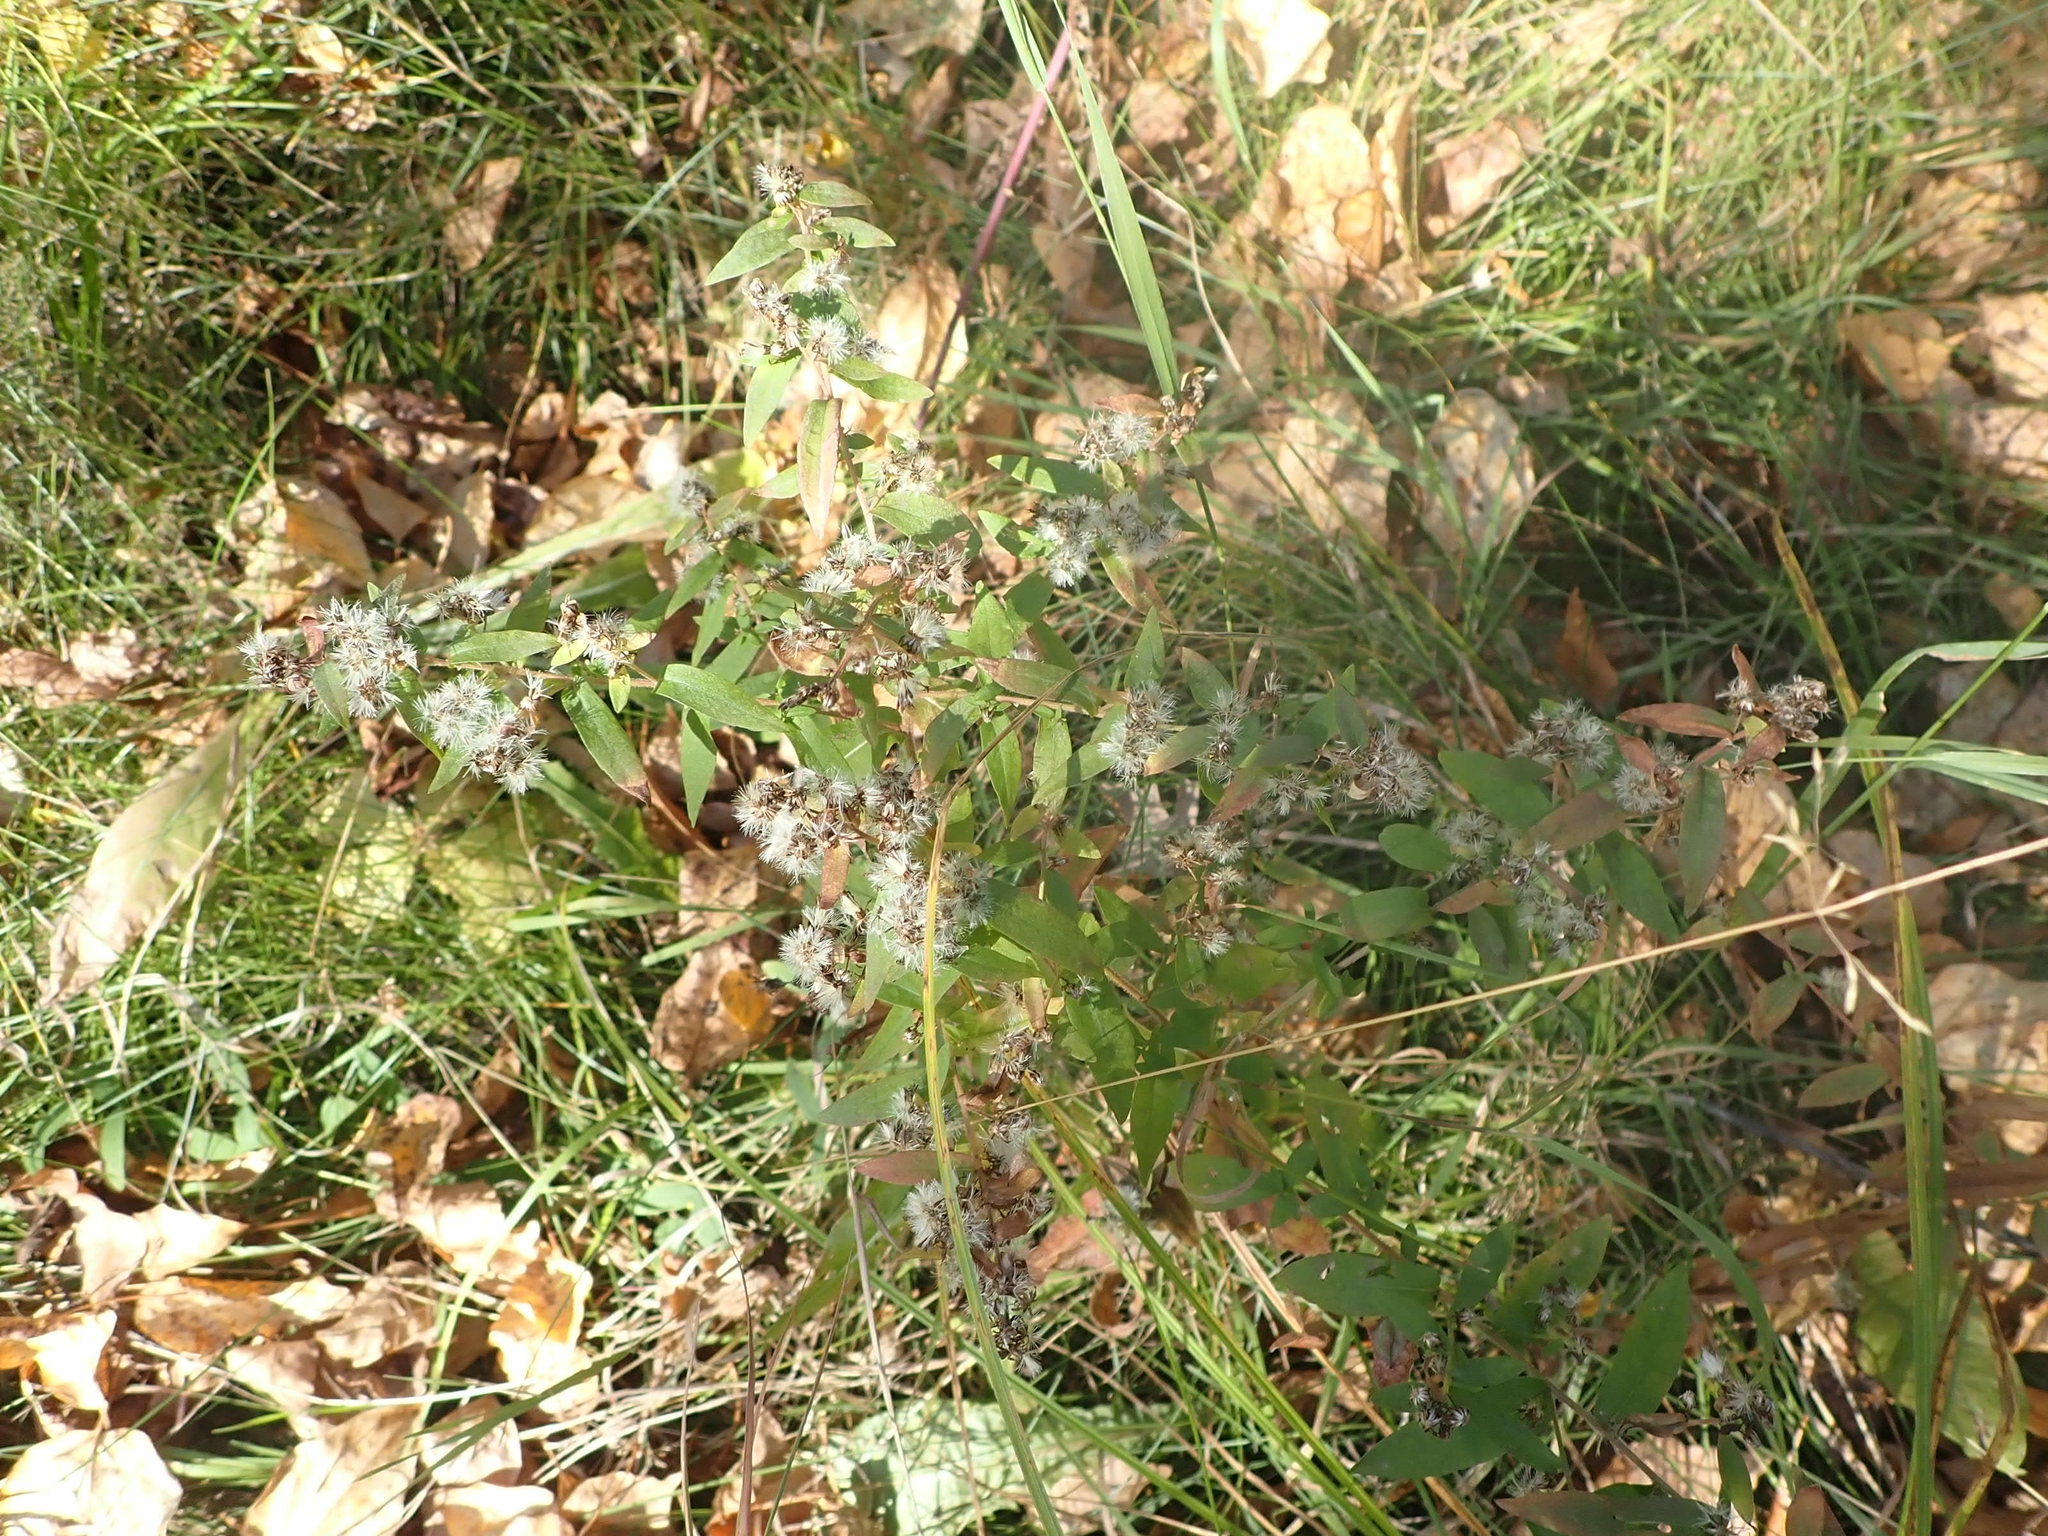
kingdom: Plantae
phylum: Tracheophyta
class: Magnoliopsida
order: Asterales
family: Asteraceae
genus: Symphyotrichum
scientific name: Symphyotrichum lateriflorum
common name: Calico aster
